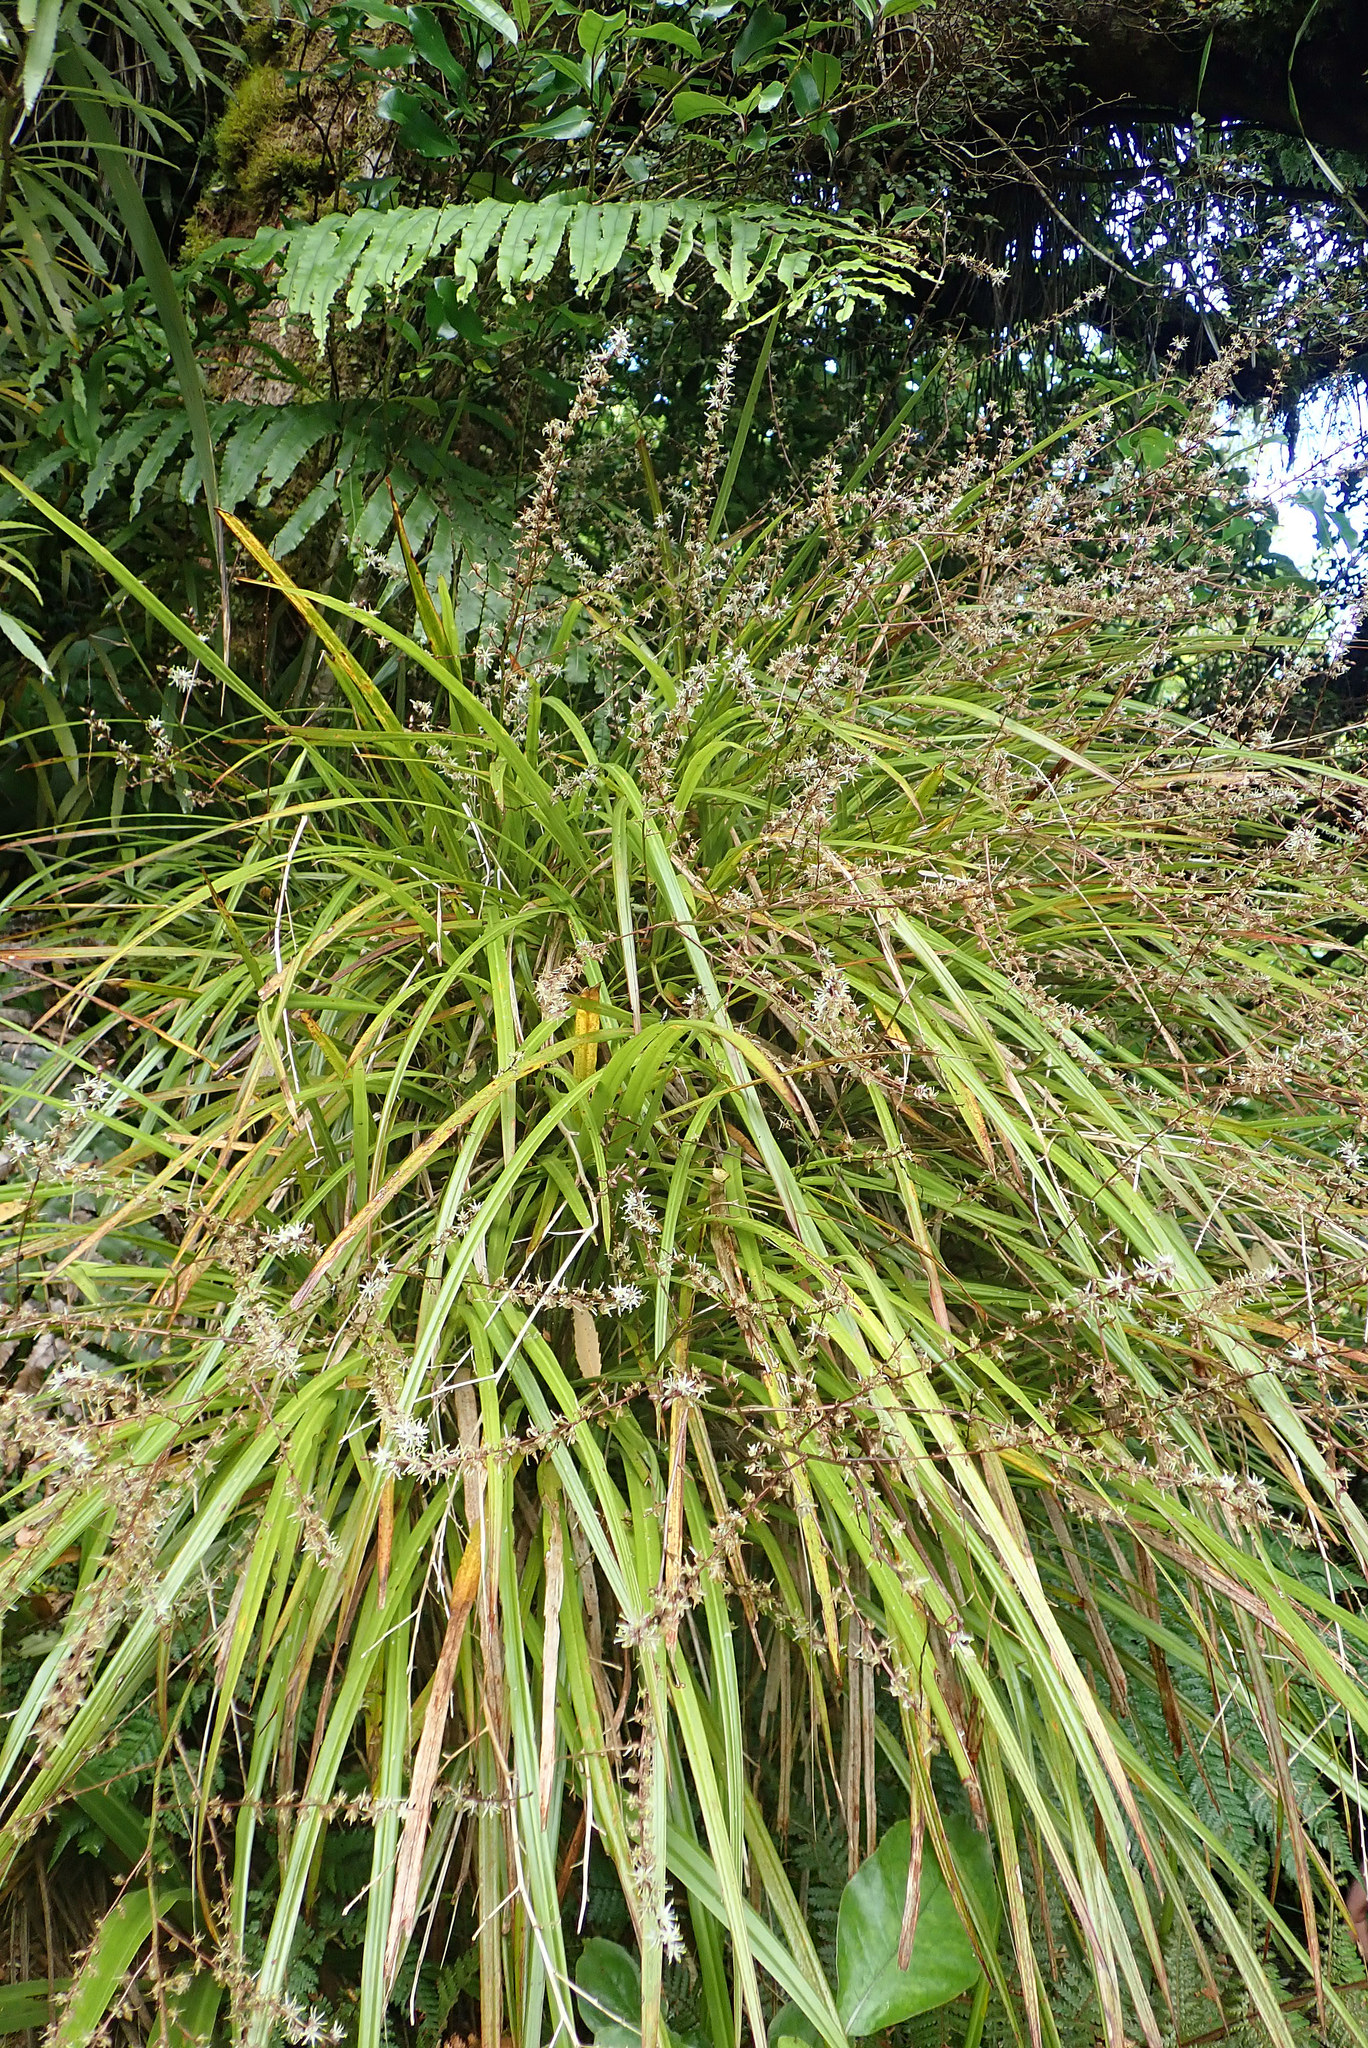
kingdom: Plantae
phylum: Tracheophyta
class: Liliopsida
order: Asparagales
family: Asparagaceae
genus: Cordyline
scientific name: Cordyline pumilio
